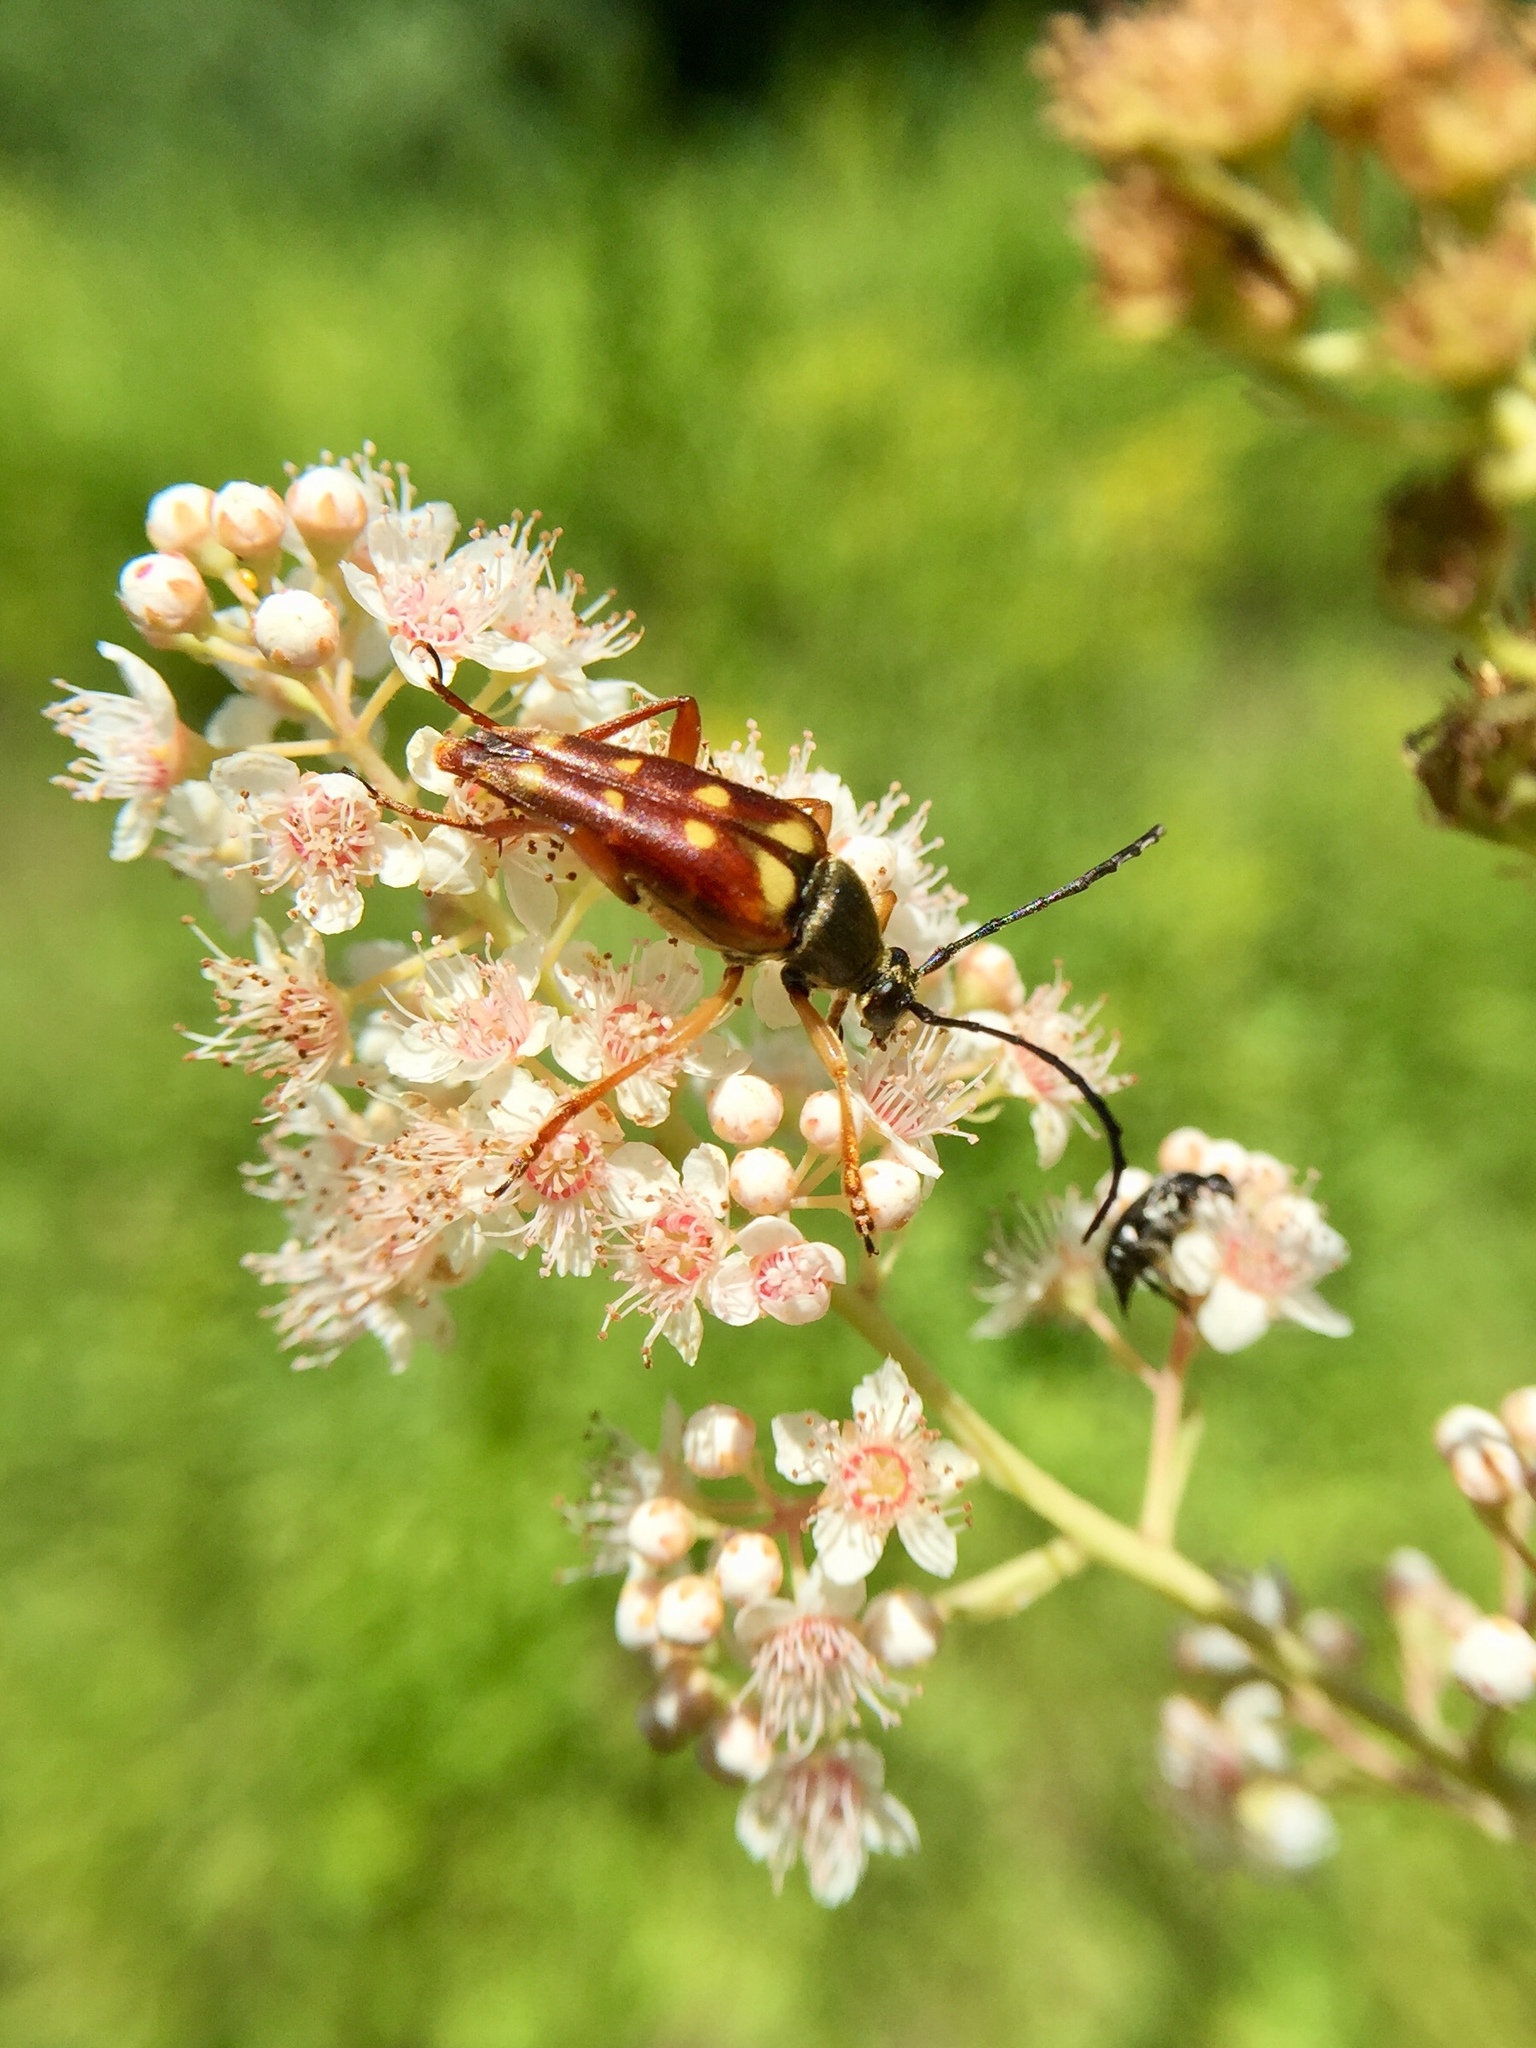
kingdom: Animalia
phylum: Arthropoda
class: Insecta
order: Coleoptera
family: Cerambycidae
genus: Typocerus
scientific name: Typocerus velutinus
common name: Banded longhorn beetle
